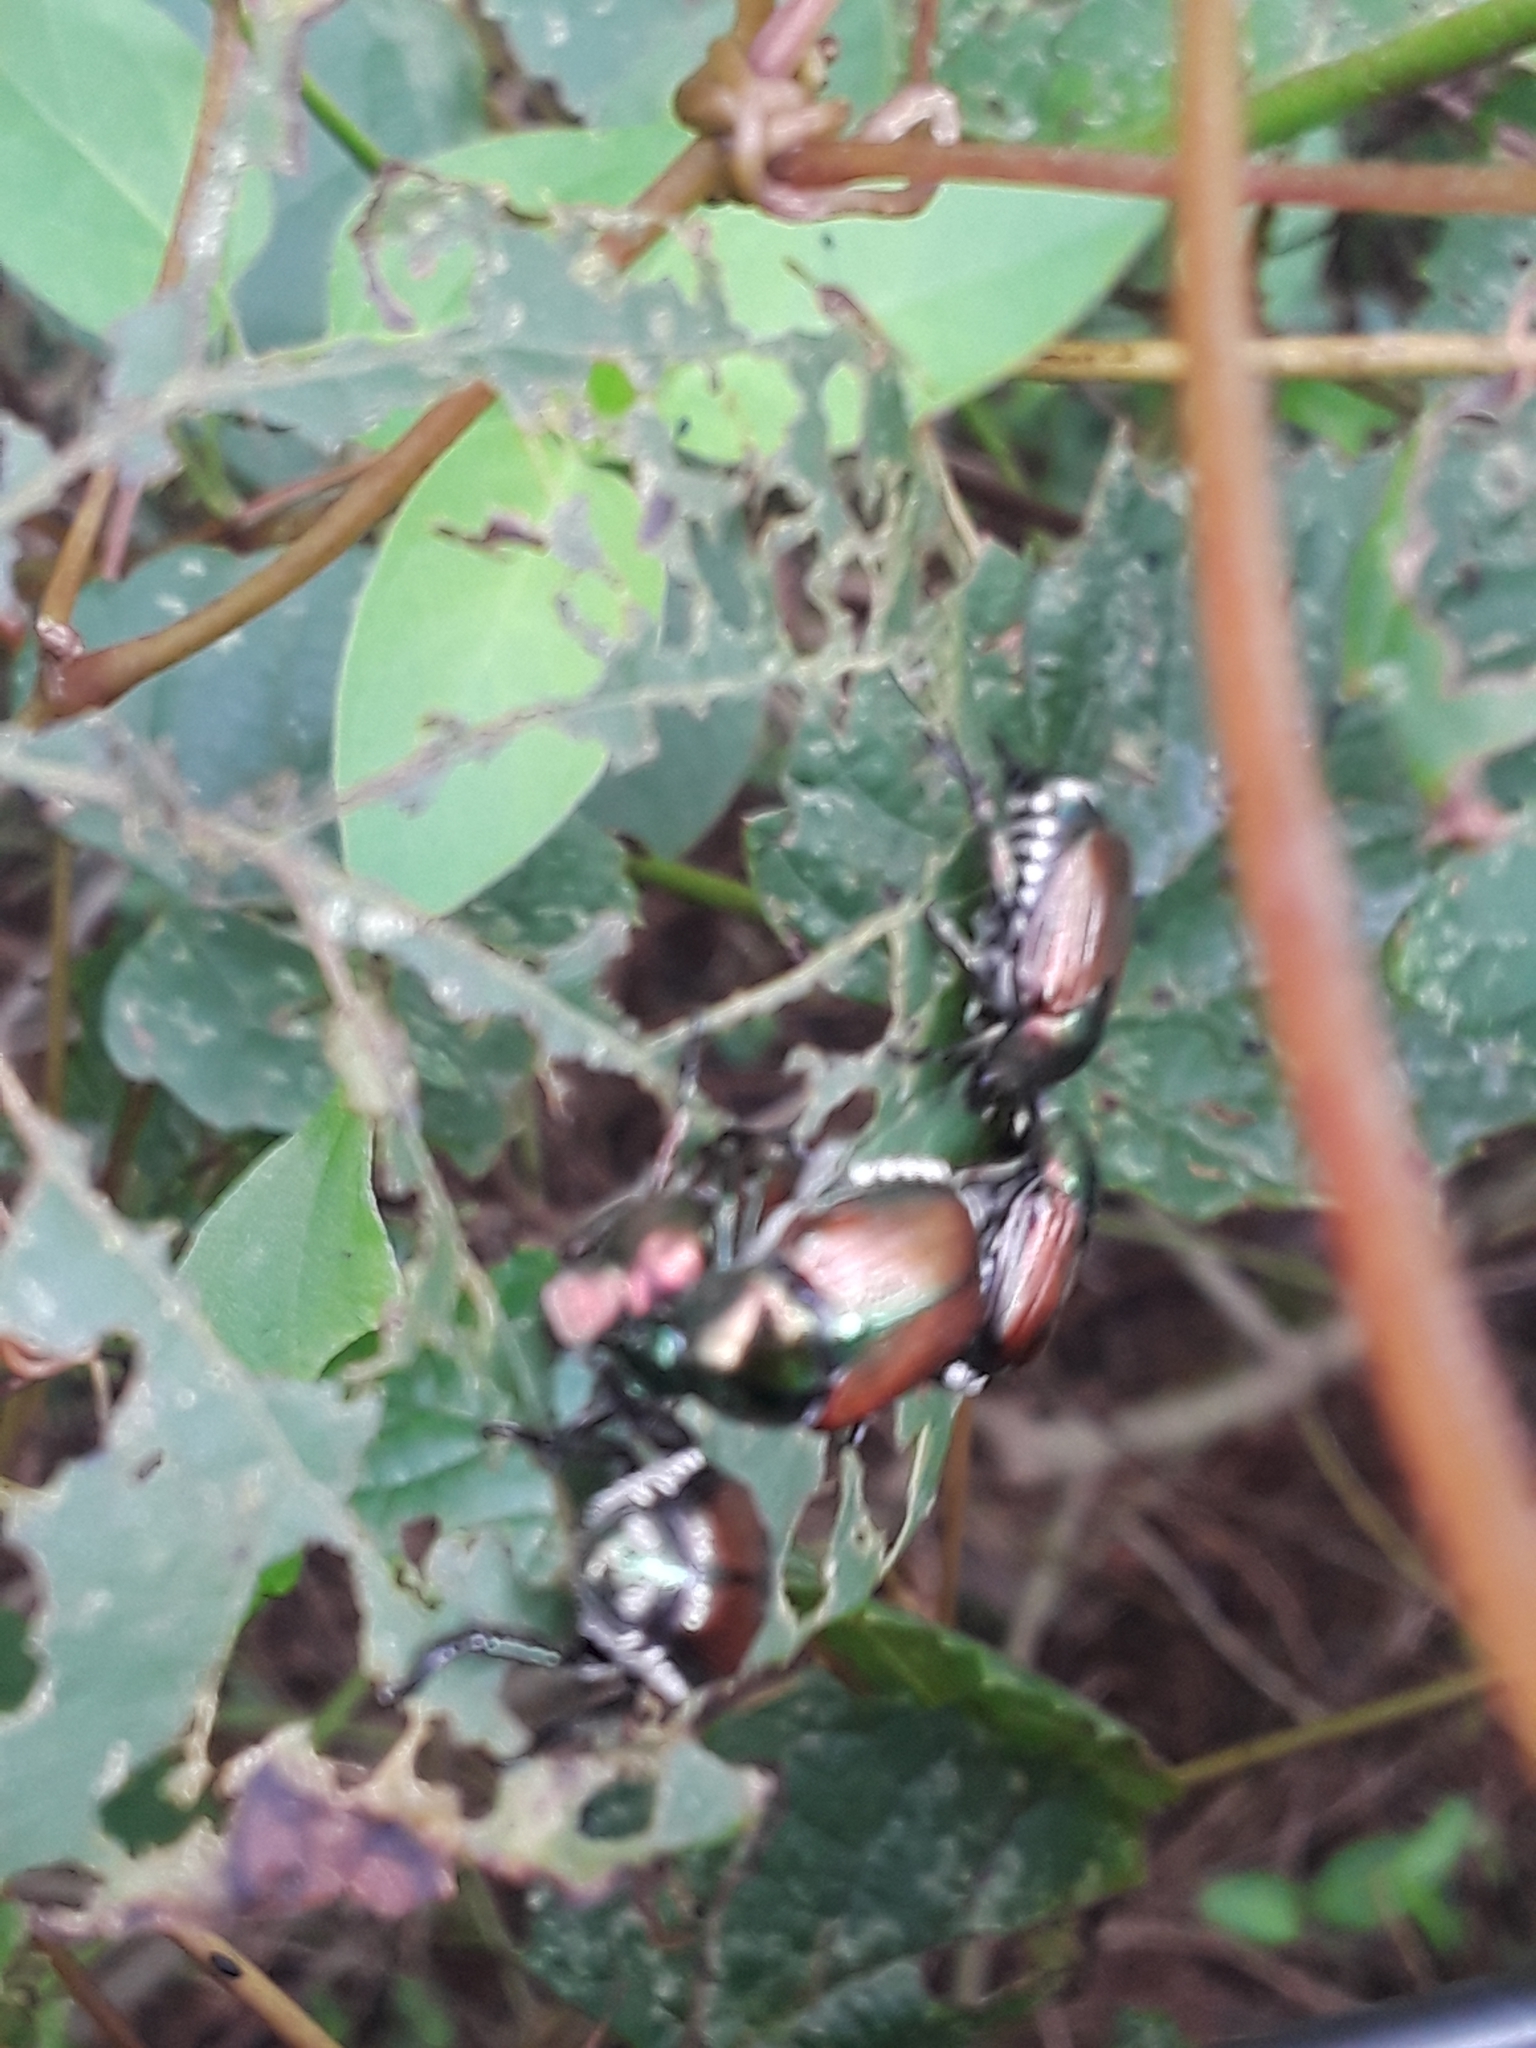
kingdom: Animalia
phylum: Arthropoda
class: Insecta
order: Coleoptera
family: Scarabaeidae
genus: Popillia
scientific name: Popillia japonica
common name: Japanese beetle
